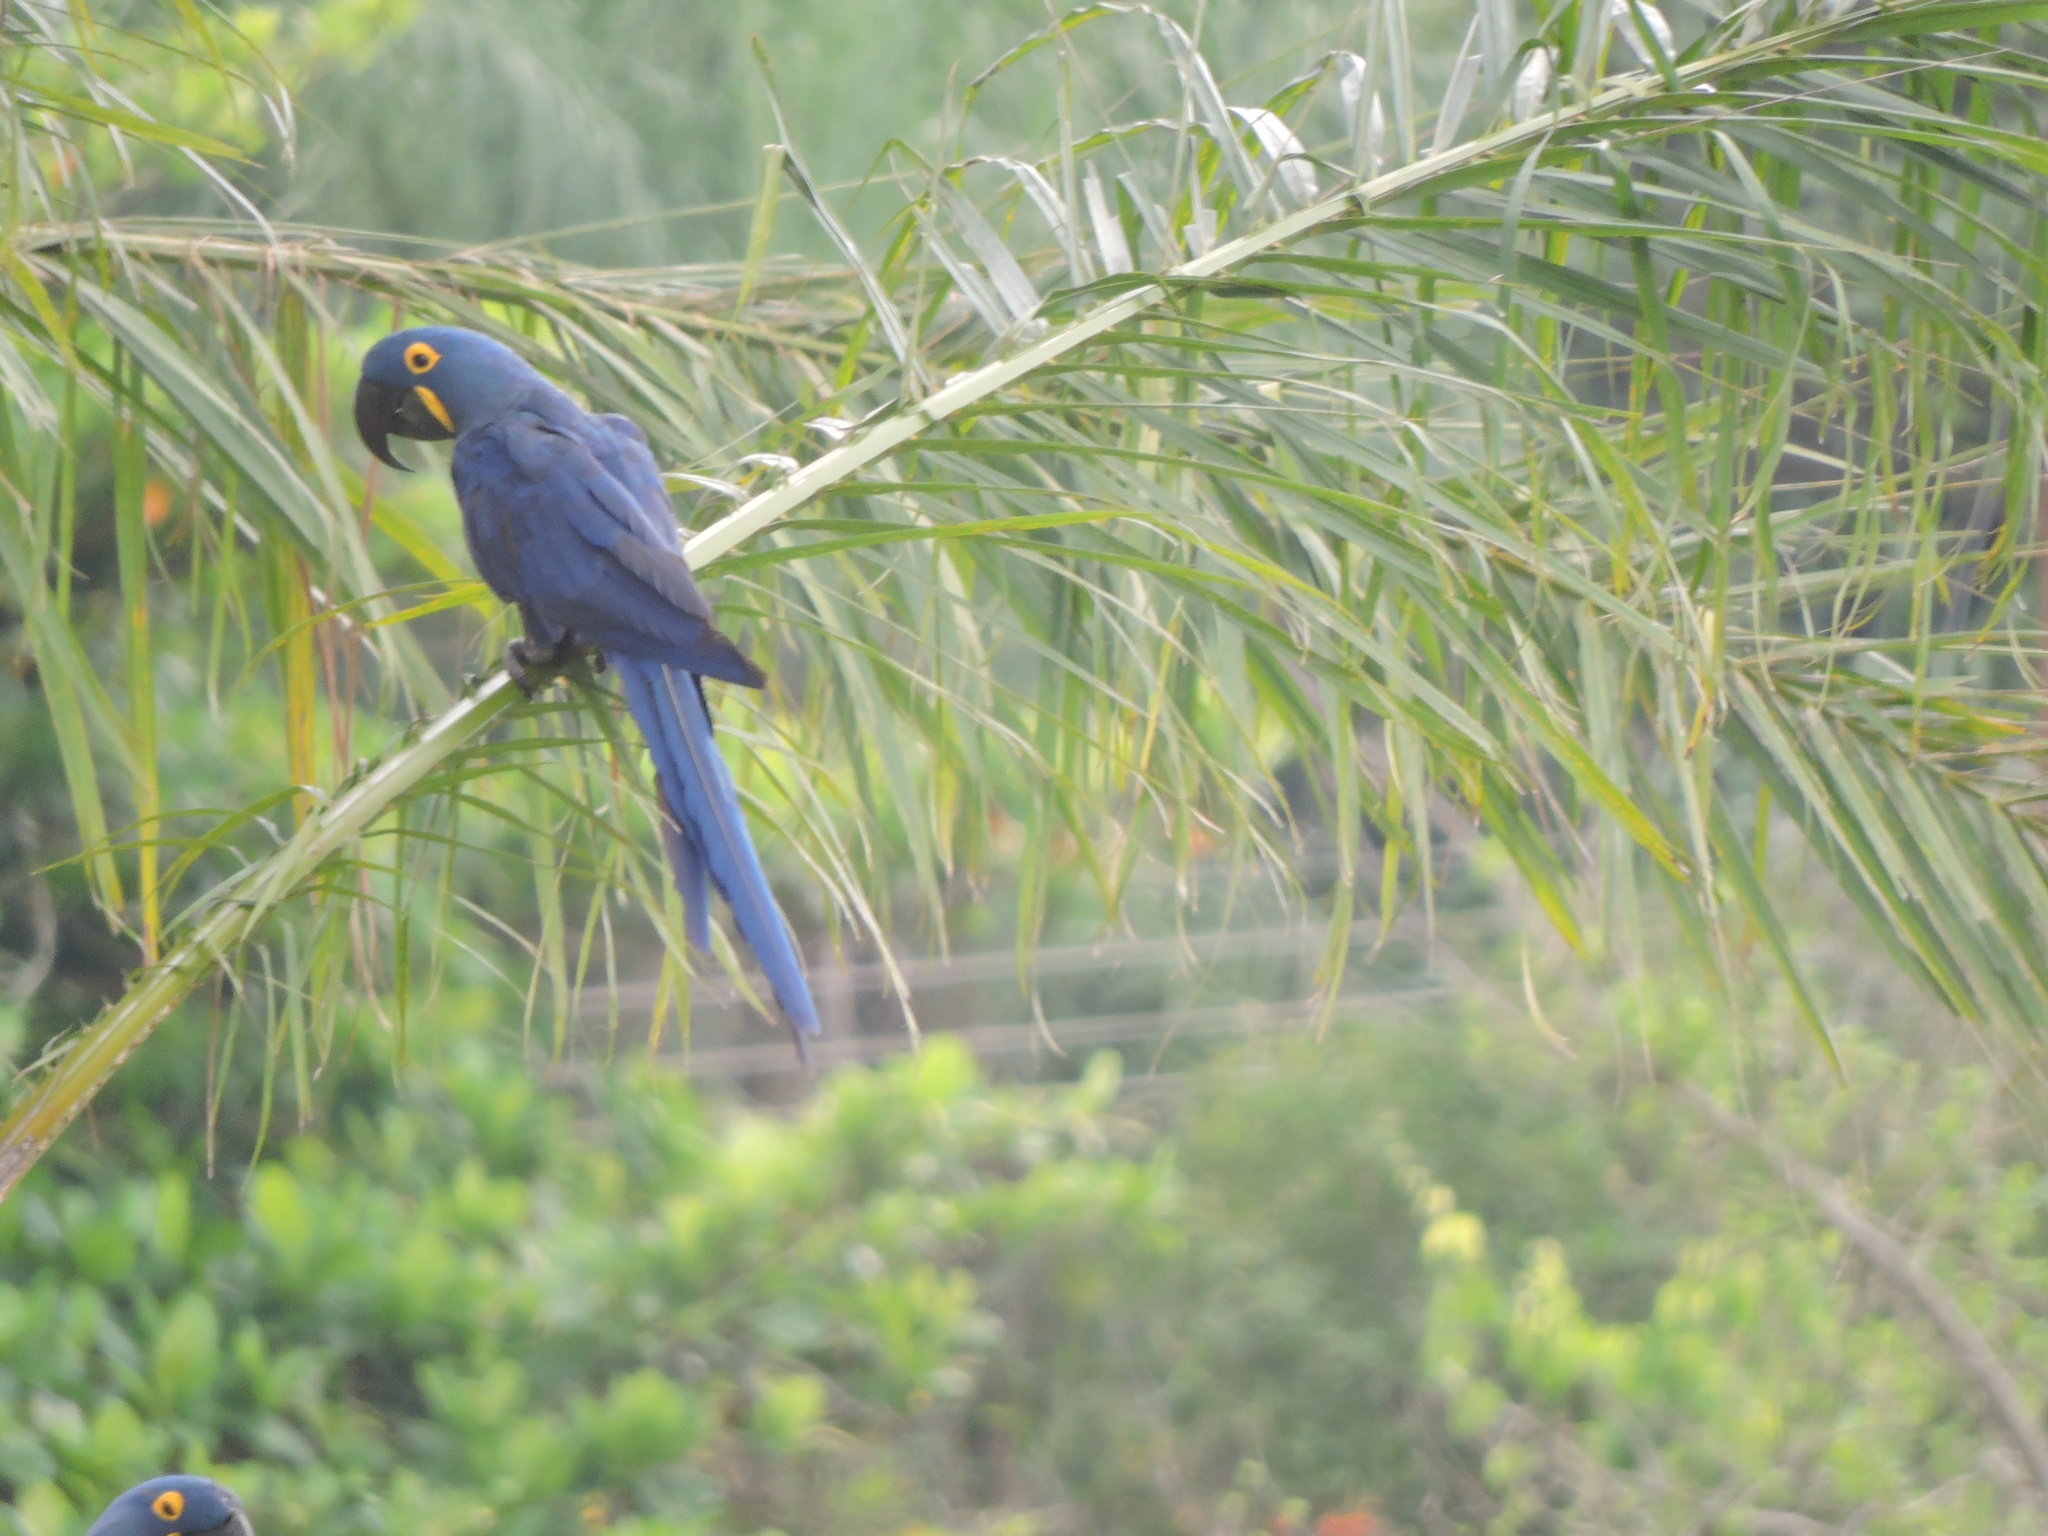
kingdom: Animalia
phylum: Chordata
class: Aves
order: Psittaciformes
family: Psittacidae
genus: Anodorhynchus
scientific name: Anodorhynchus hyacinthinus
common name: Hyacinth macaw
